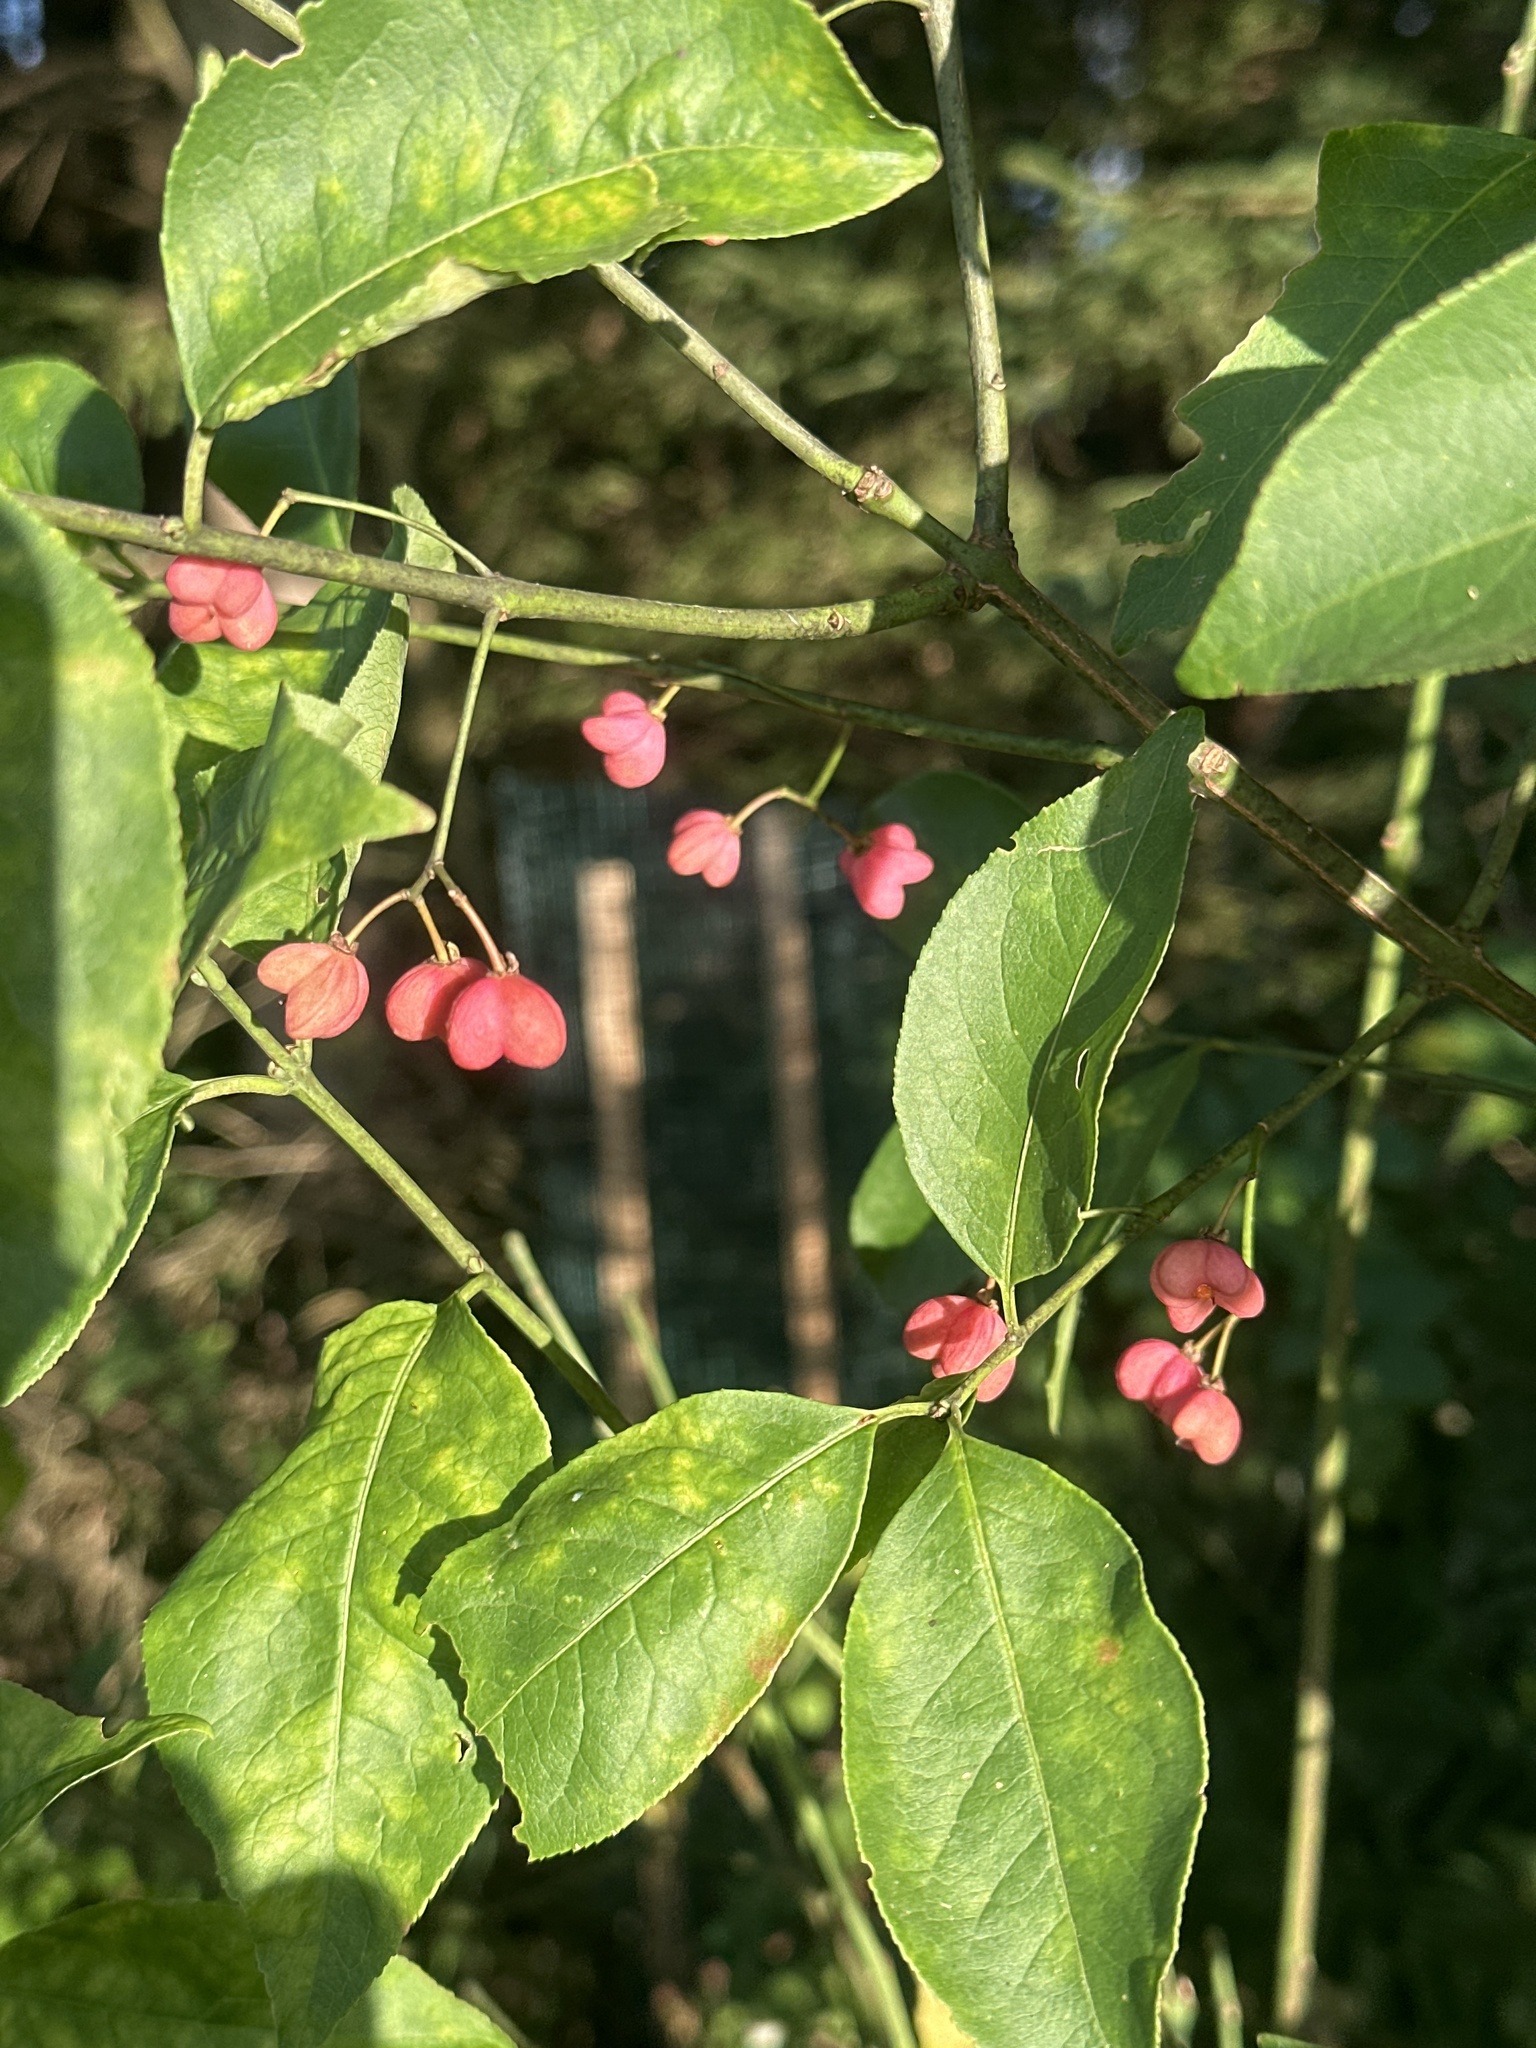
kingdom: Plantae
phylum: Tracheophyta
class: Magnoliopsida
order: Celastrales
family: Celastraceae
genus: Euonymus
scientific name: Euonymus europaeus
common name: Spindle
